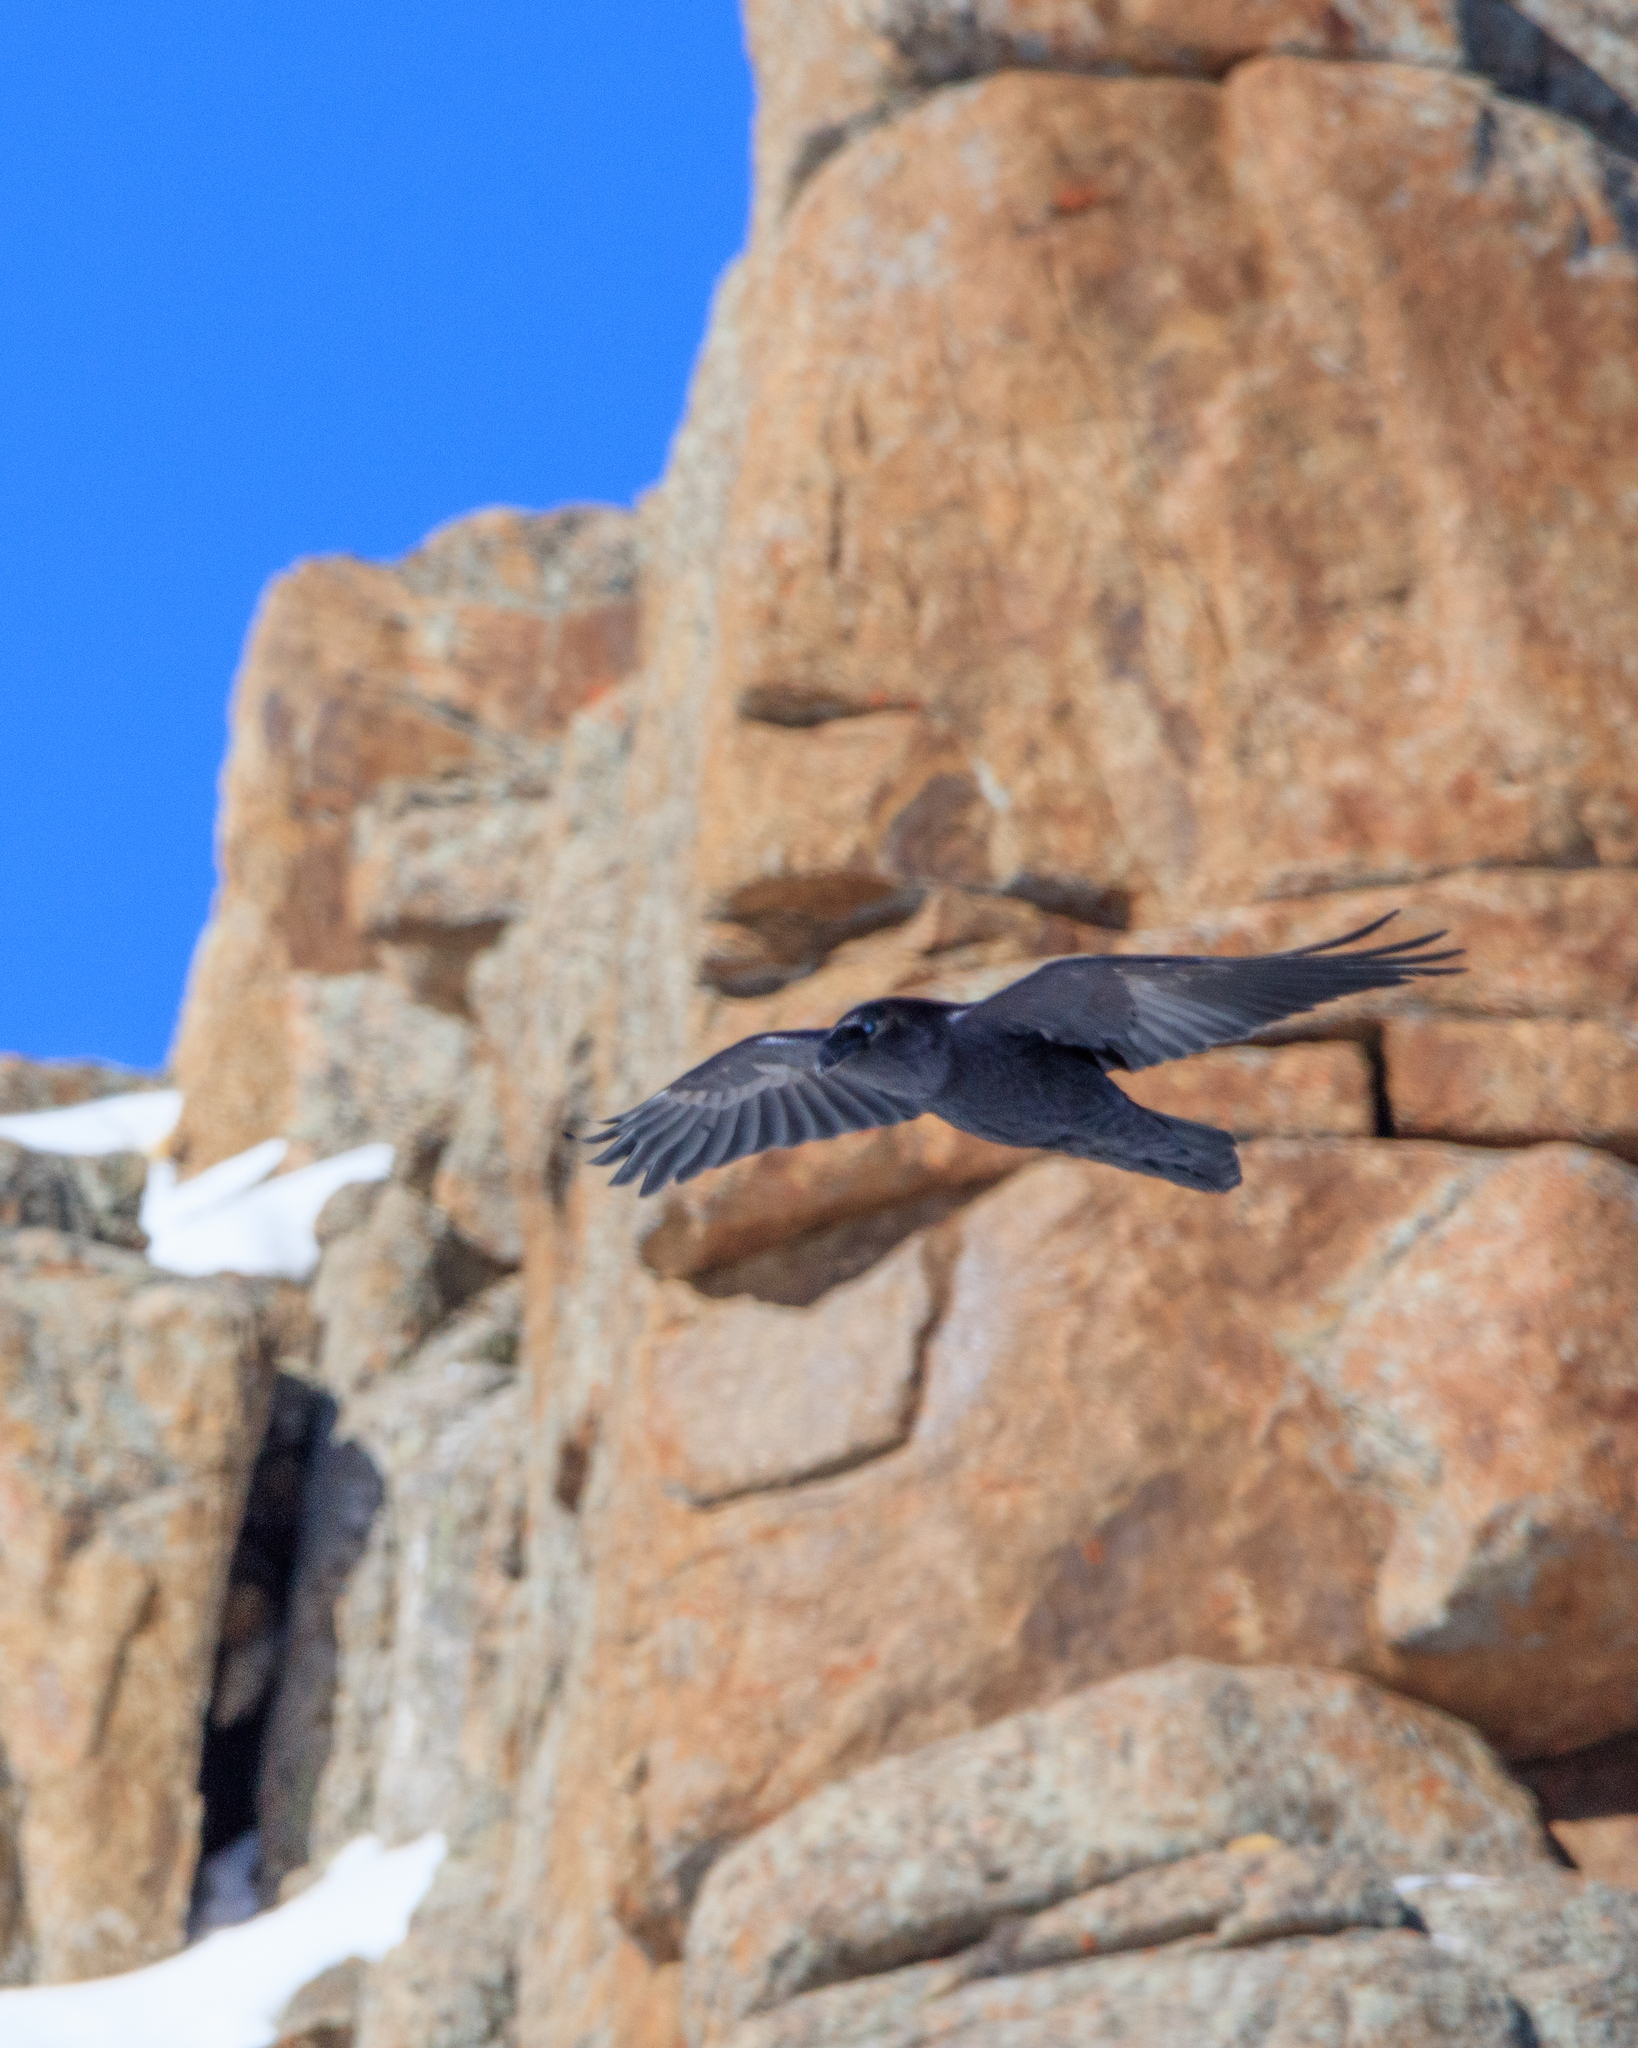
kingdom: Animalia
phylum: Chordata
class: Aves
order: Passeriformes
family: Corvidae
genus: Corvus
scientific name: Corvus corax
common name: Common raven
